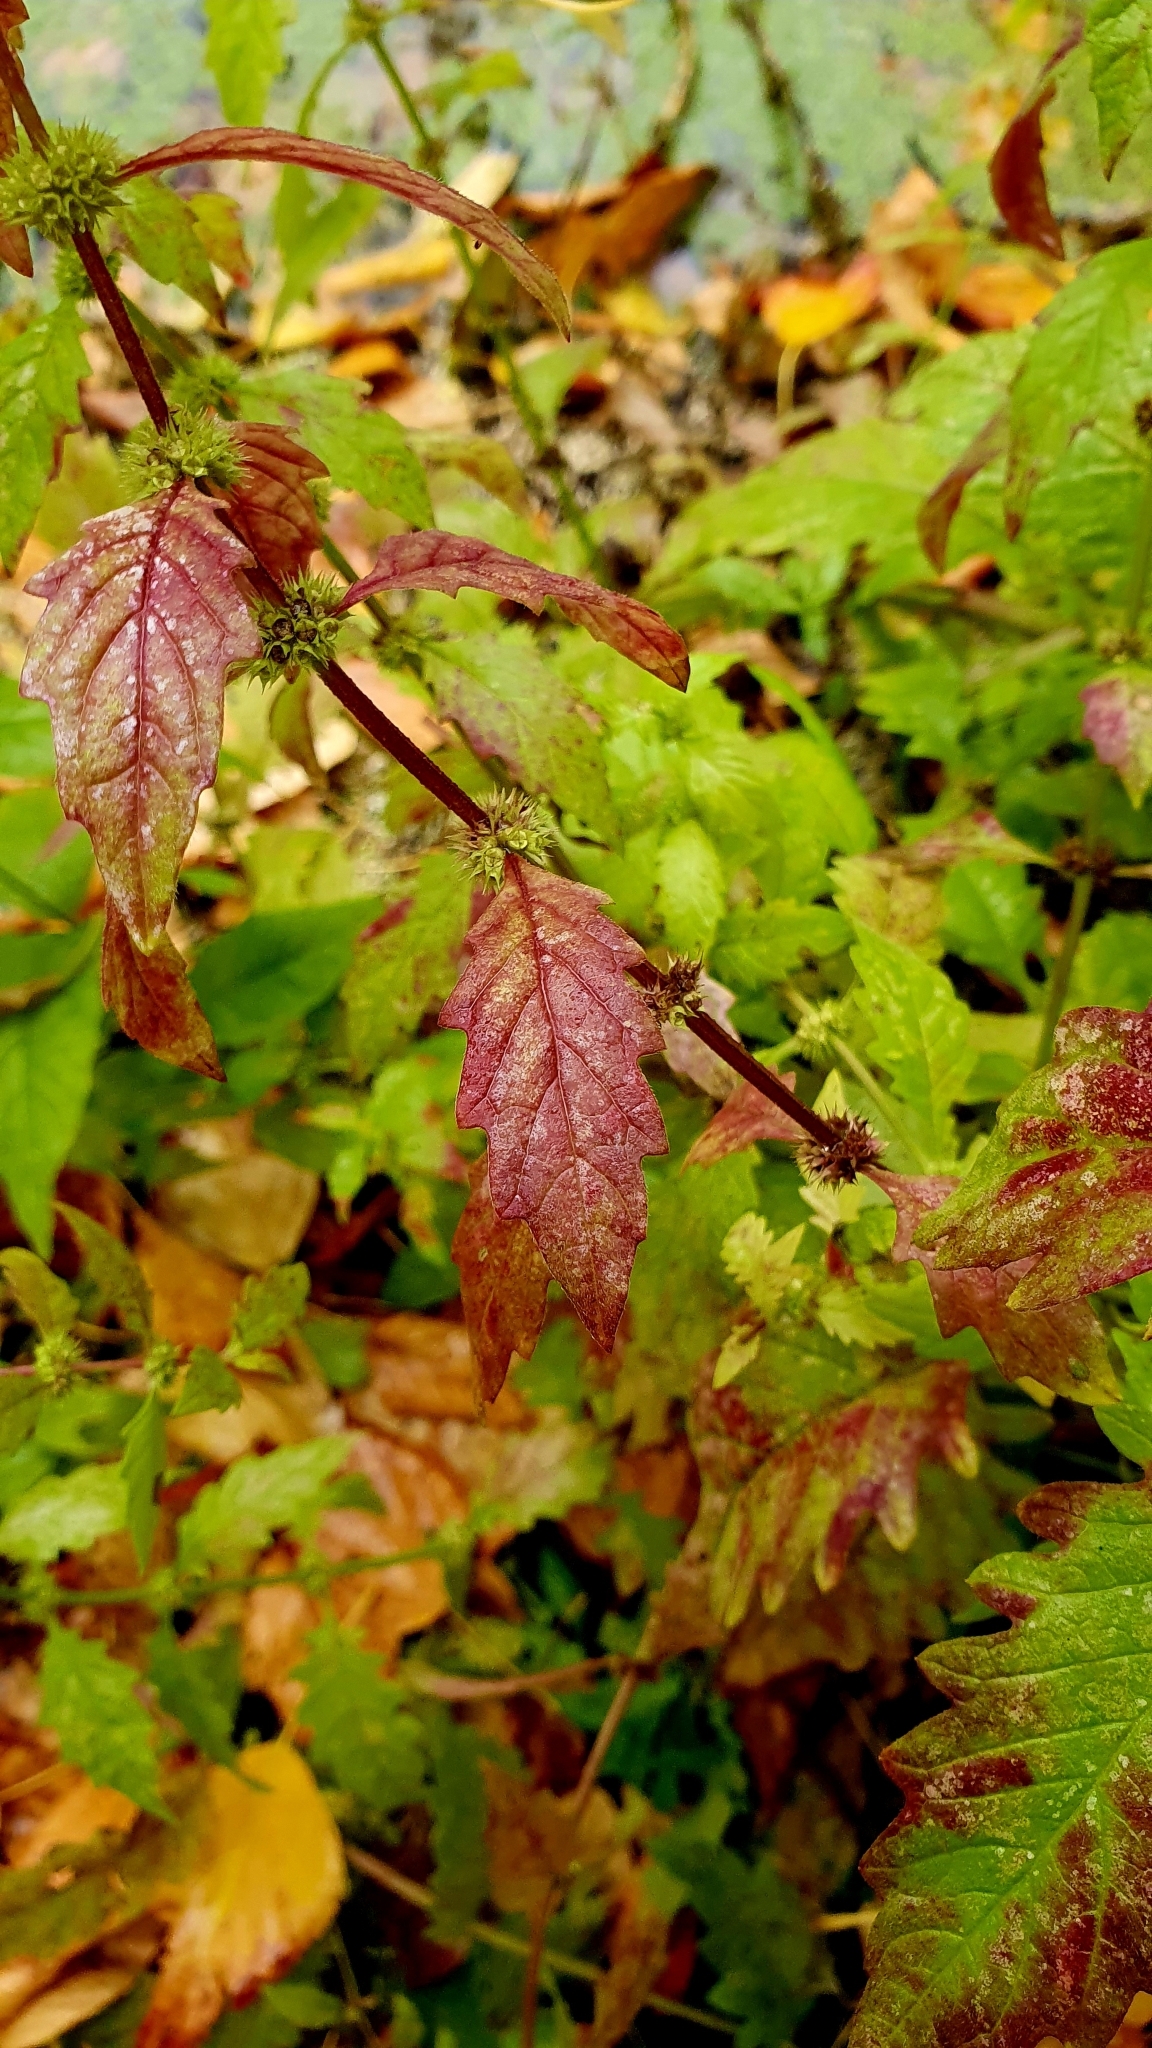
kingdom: Plantae
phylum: Tracheophyta
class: Magnoliopsida
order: Lamiales
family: Lamiaceae
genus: Lycopus
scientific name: Lycopus europaeus
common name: European bugleweed
